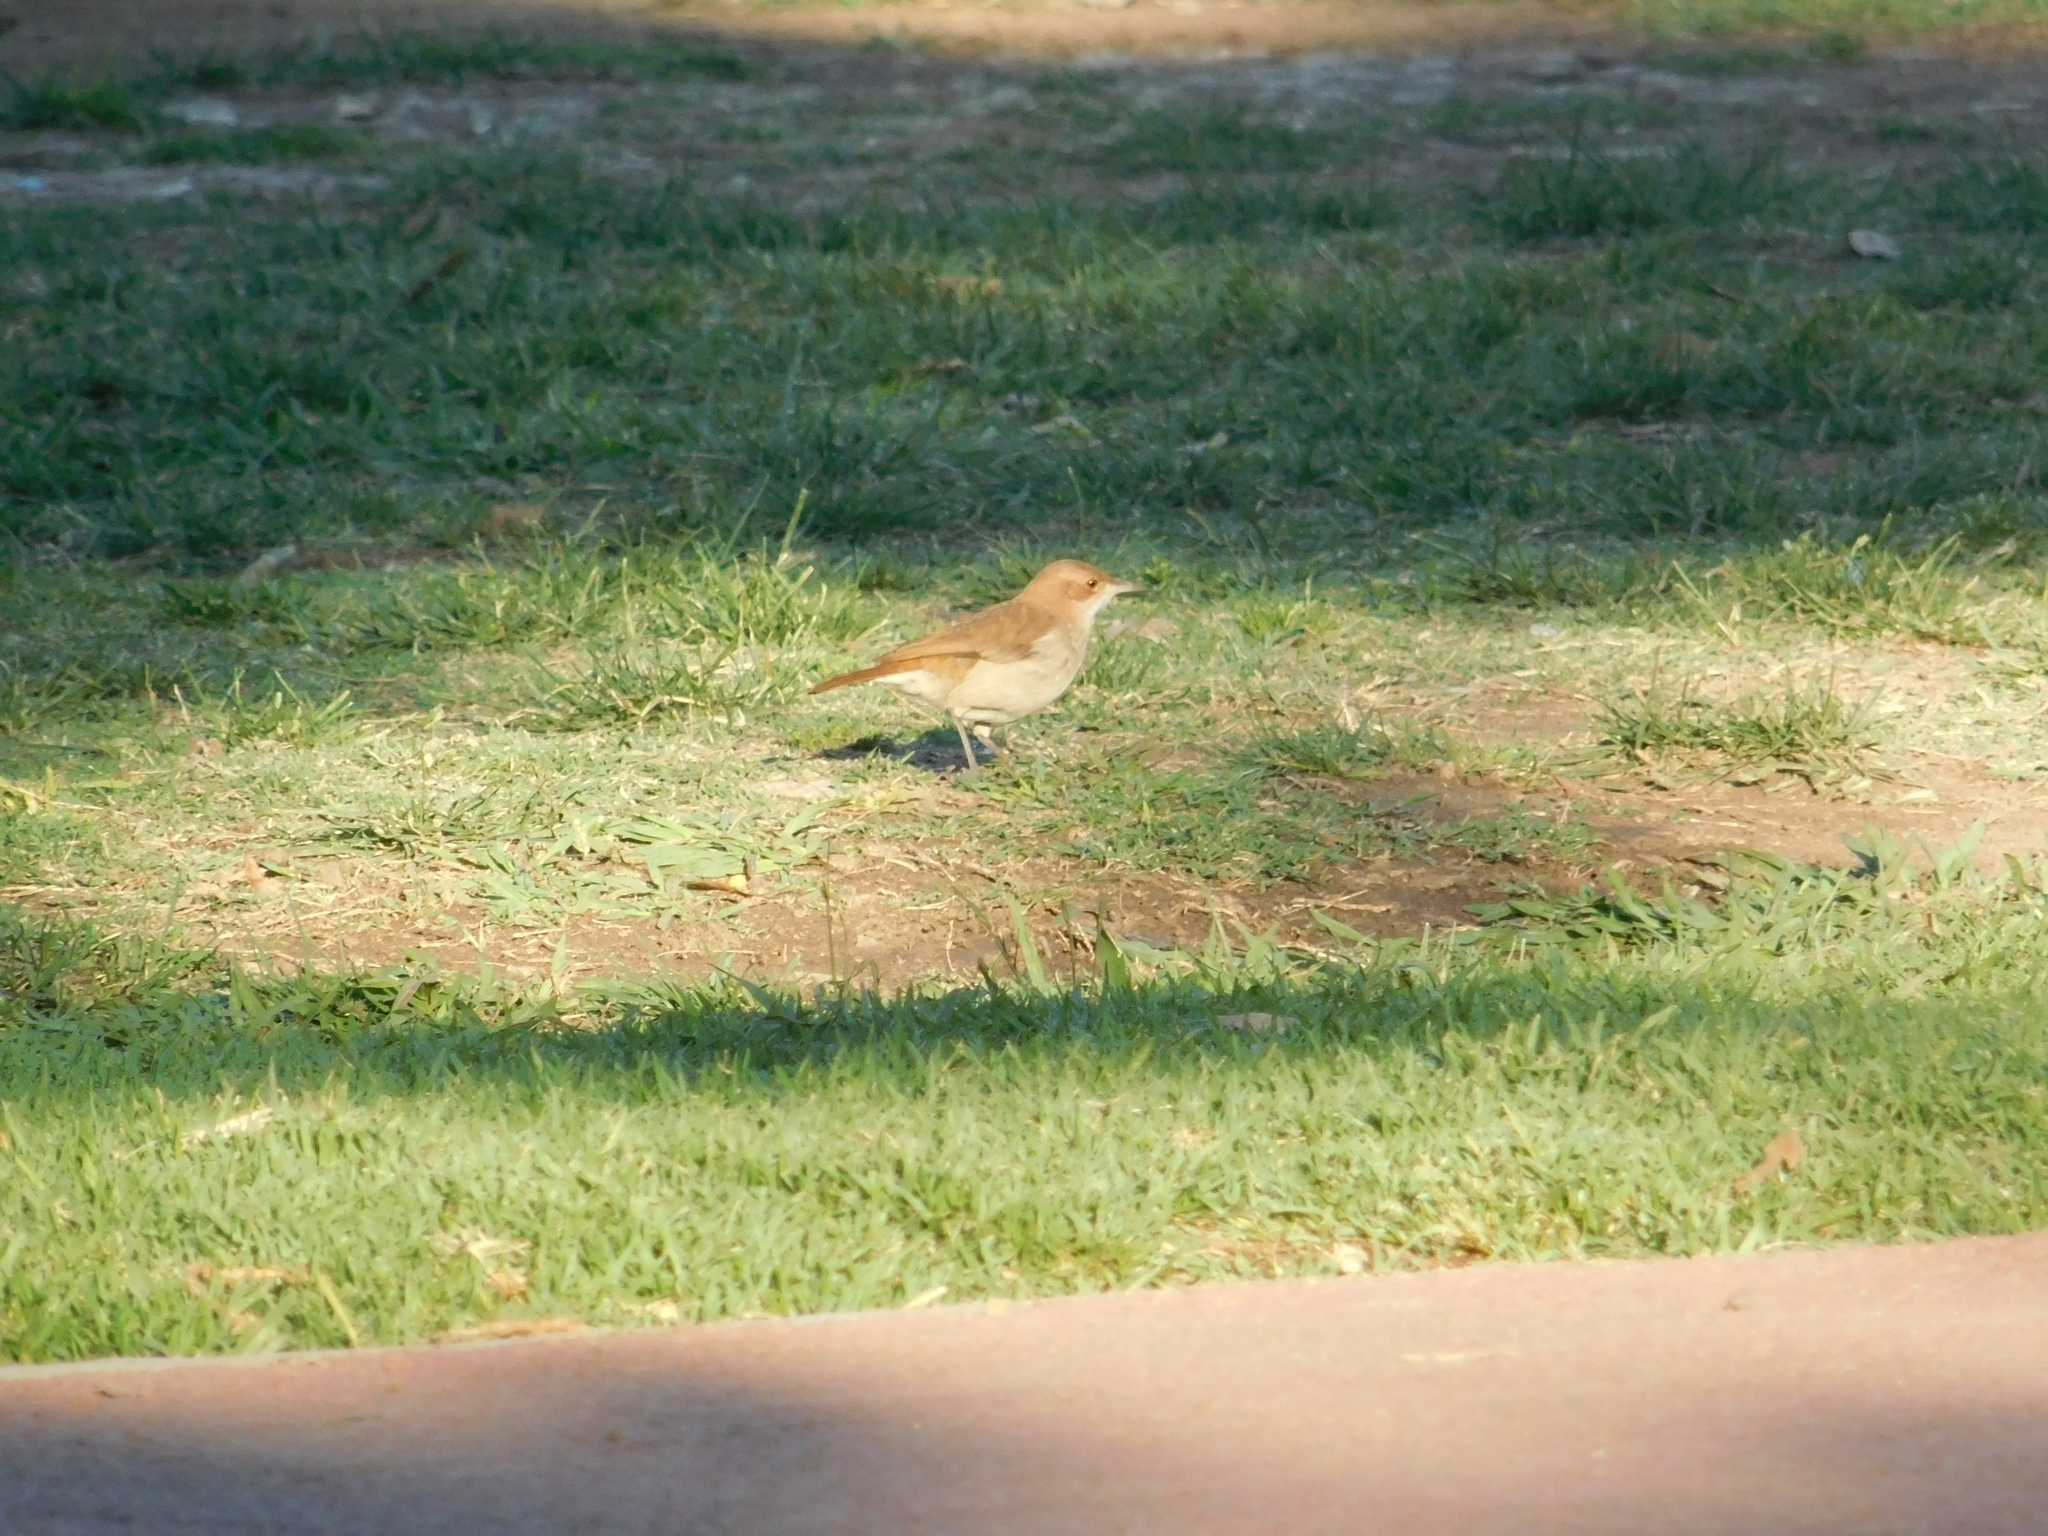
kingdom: Animalia
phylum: Chordata
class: Aves
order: Passeriformes
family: Furnariidae
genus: Furnarius
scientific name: Furnarius rufus
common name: Rufous hornero
